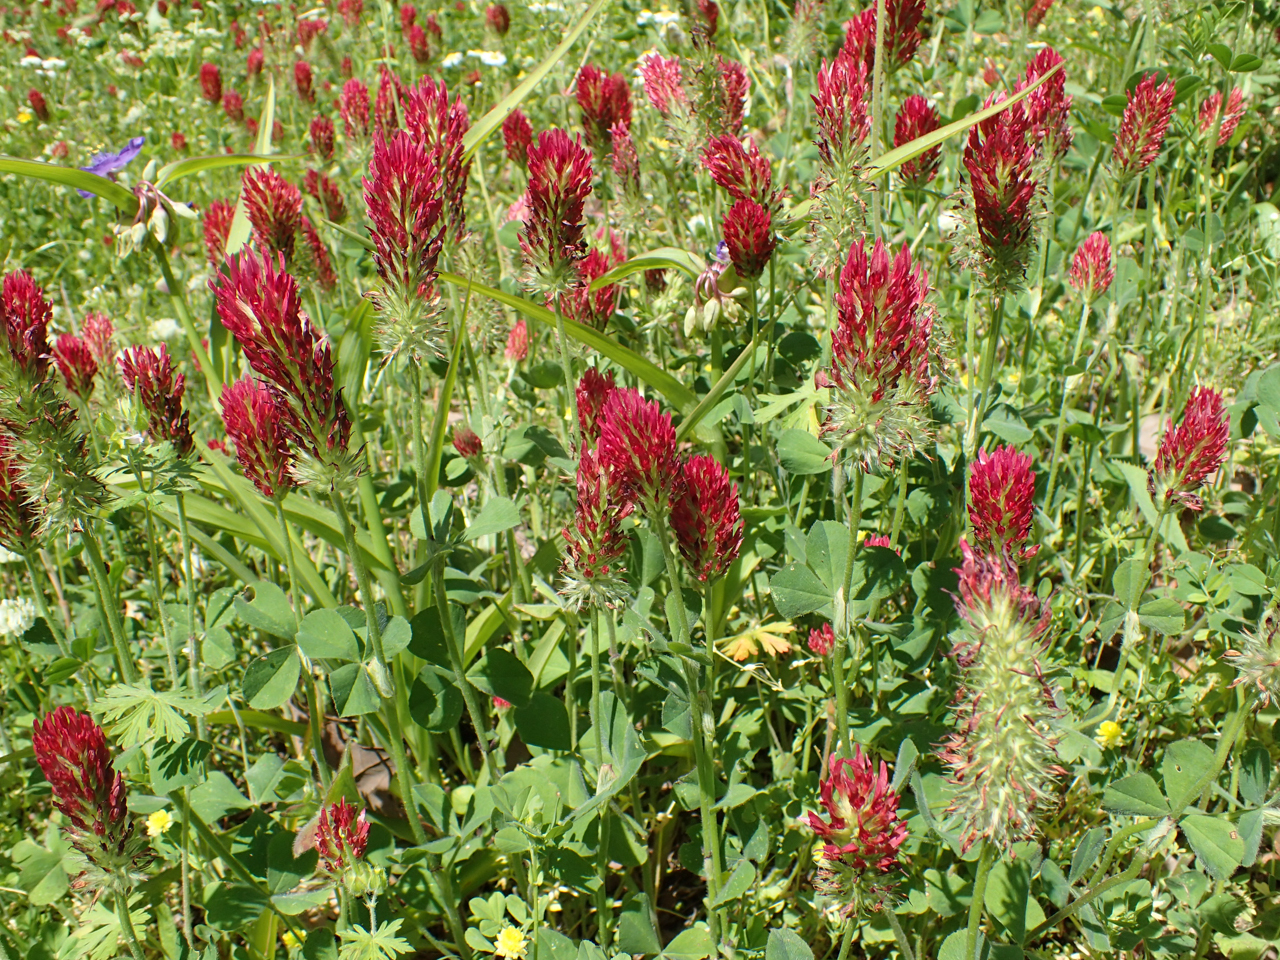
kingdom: Plantae
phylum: Tracheophyta
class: Magnoliopsida
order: Fabales
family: Fabaceae
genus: Trifolium
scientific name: Trifolium incarnatum
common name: Crimson clover
